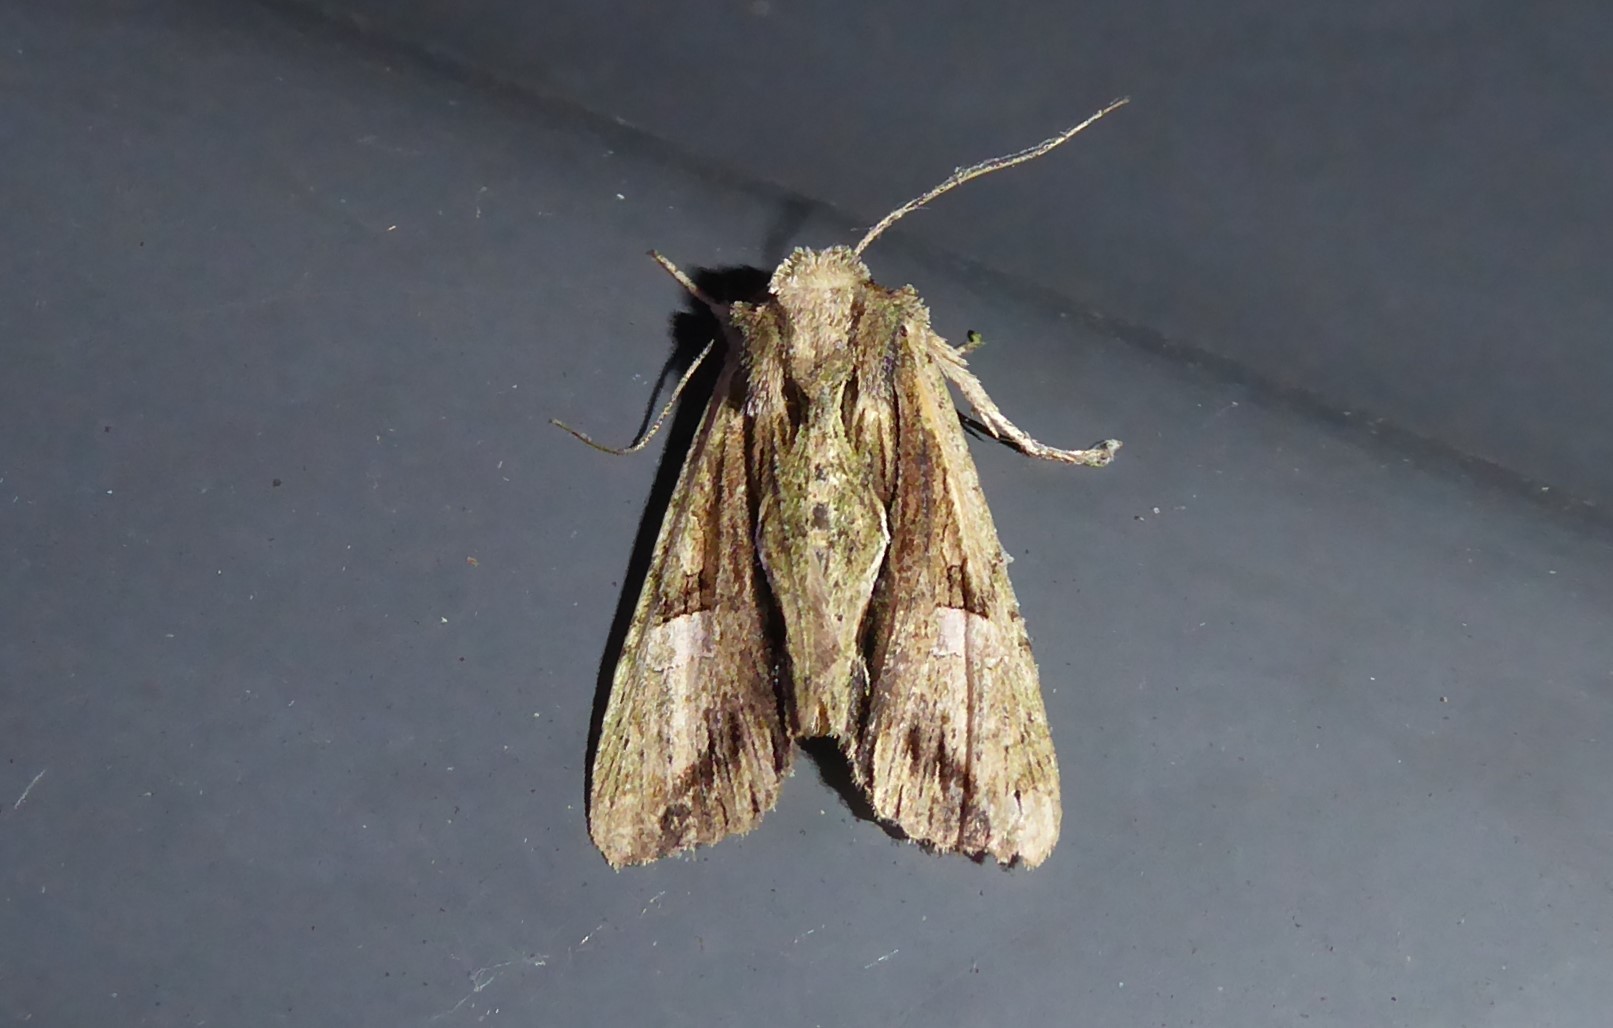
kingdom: Animalia
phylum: Arthropoda
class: Insecta
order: Lepidoptera
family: Noctuidae
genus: Meterana
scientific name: Meterana decorata
